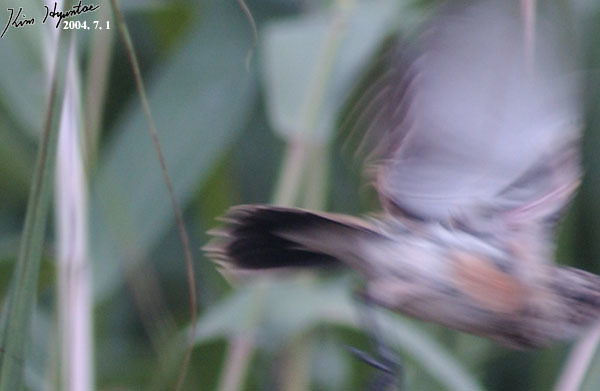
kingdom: Animalia
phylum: Chordata
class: Aves
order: Passeriformes
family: Muscicapidae
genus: Saxicola
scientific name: Saxicola stejnegeri
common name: Stejneger's stonechat
